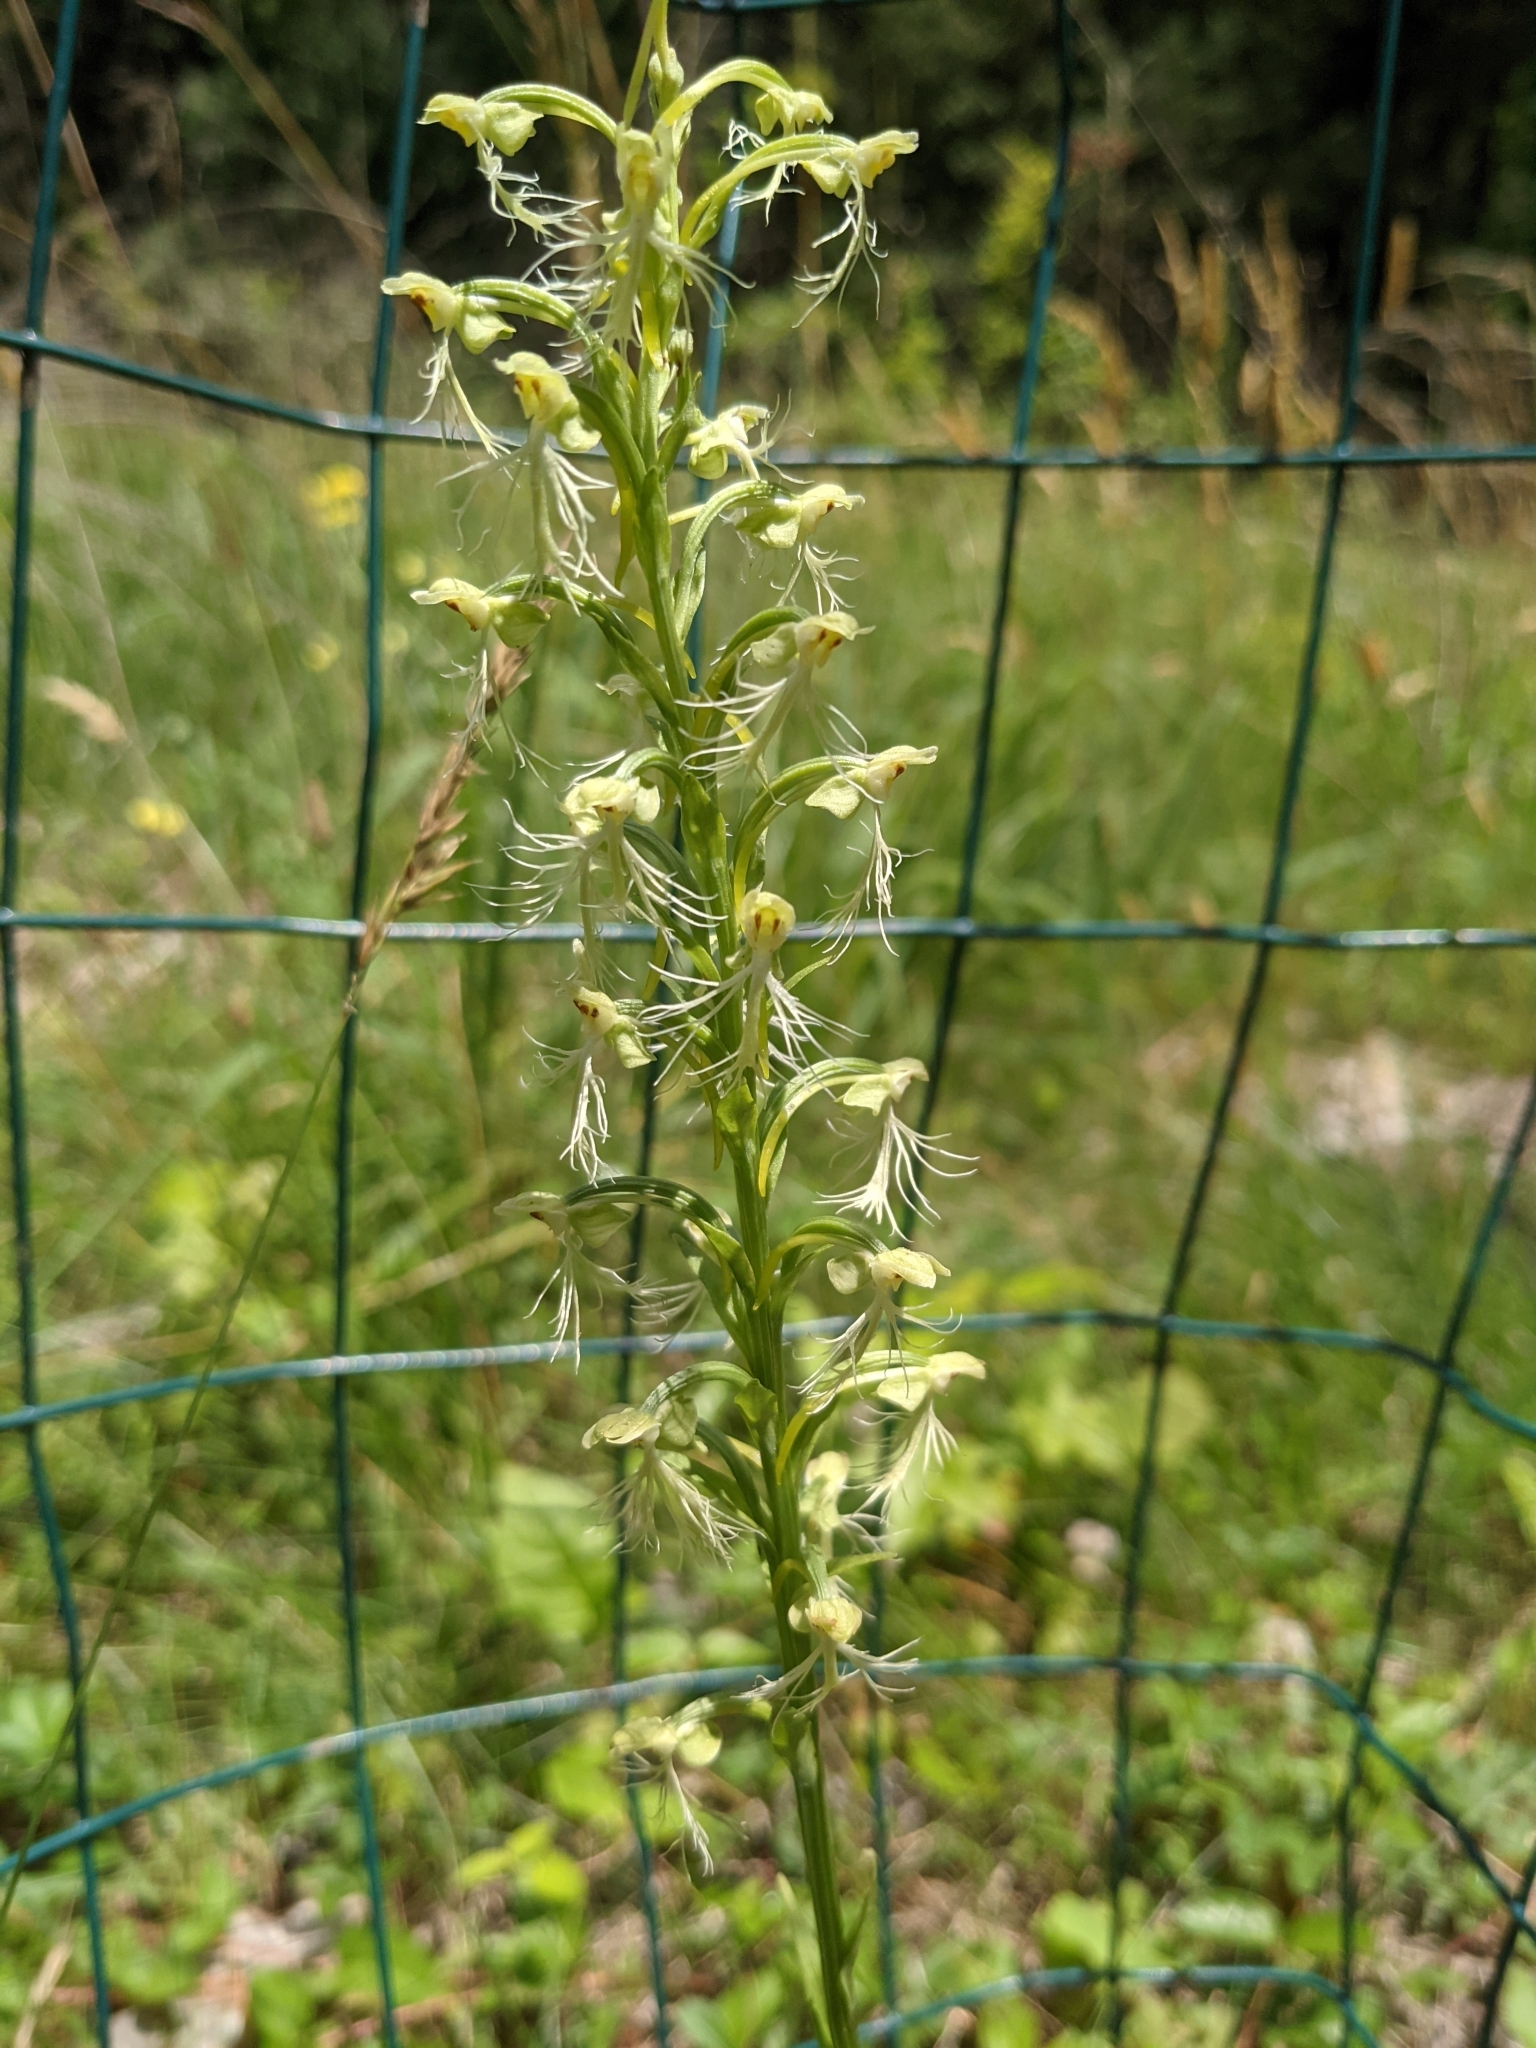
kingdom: Plantae
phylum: Tracheophyta
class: Liliopsida
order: Asparagales
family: Orchidaceae
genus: Platanthera
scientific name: Platanthera lacera
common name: Green fringed orchid
